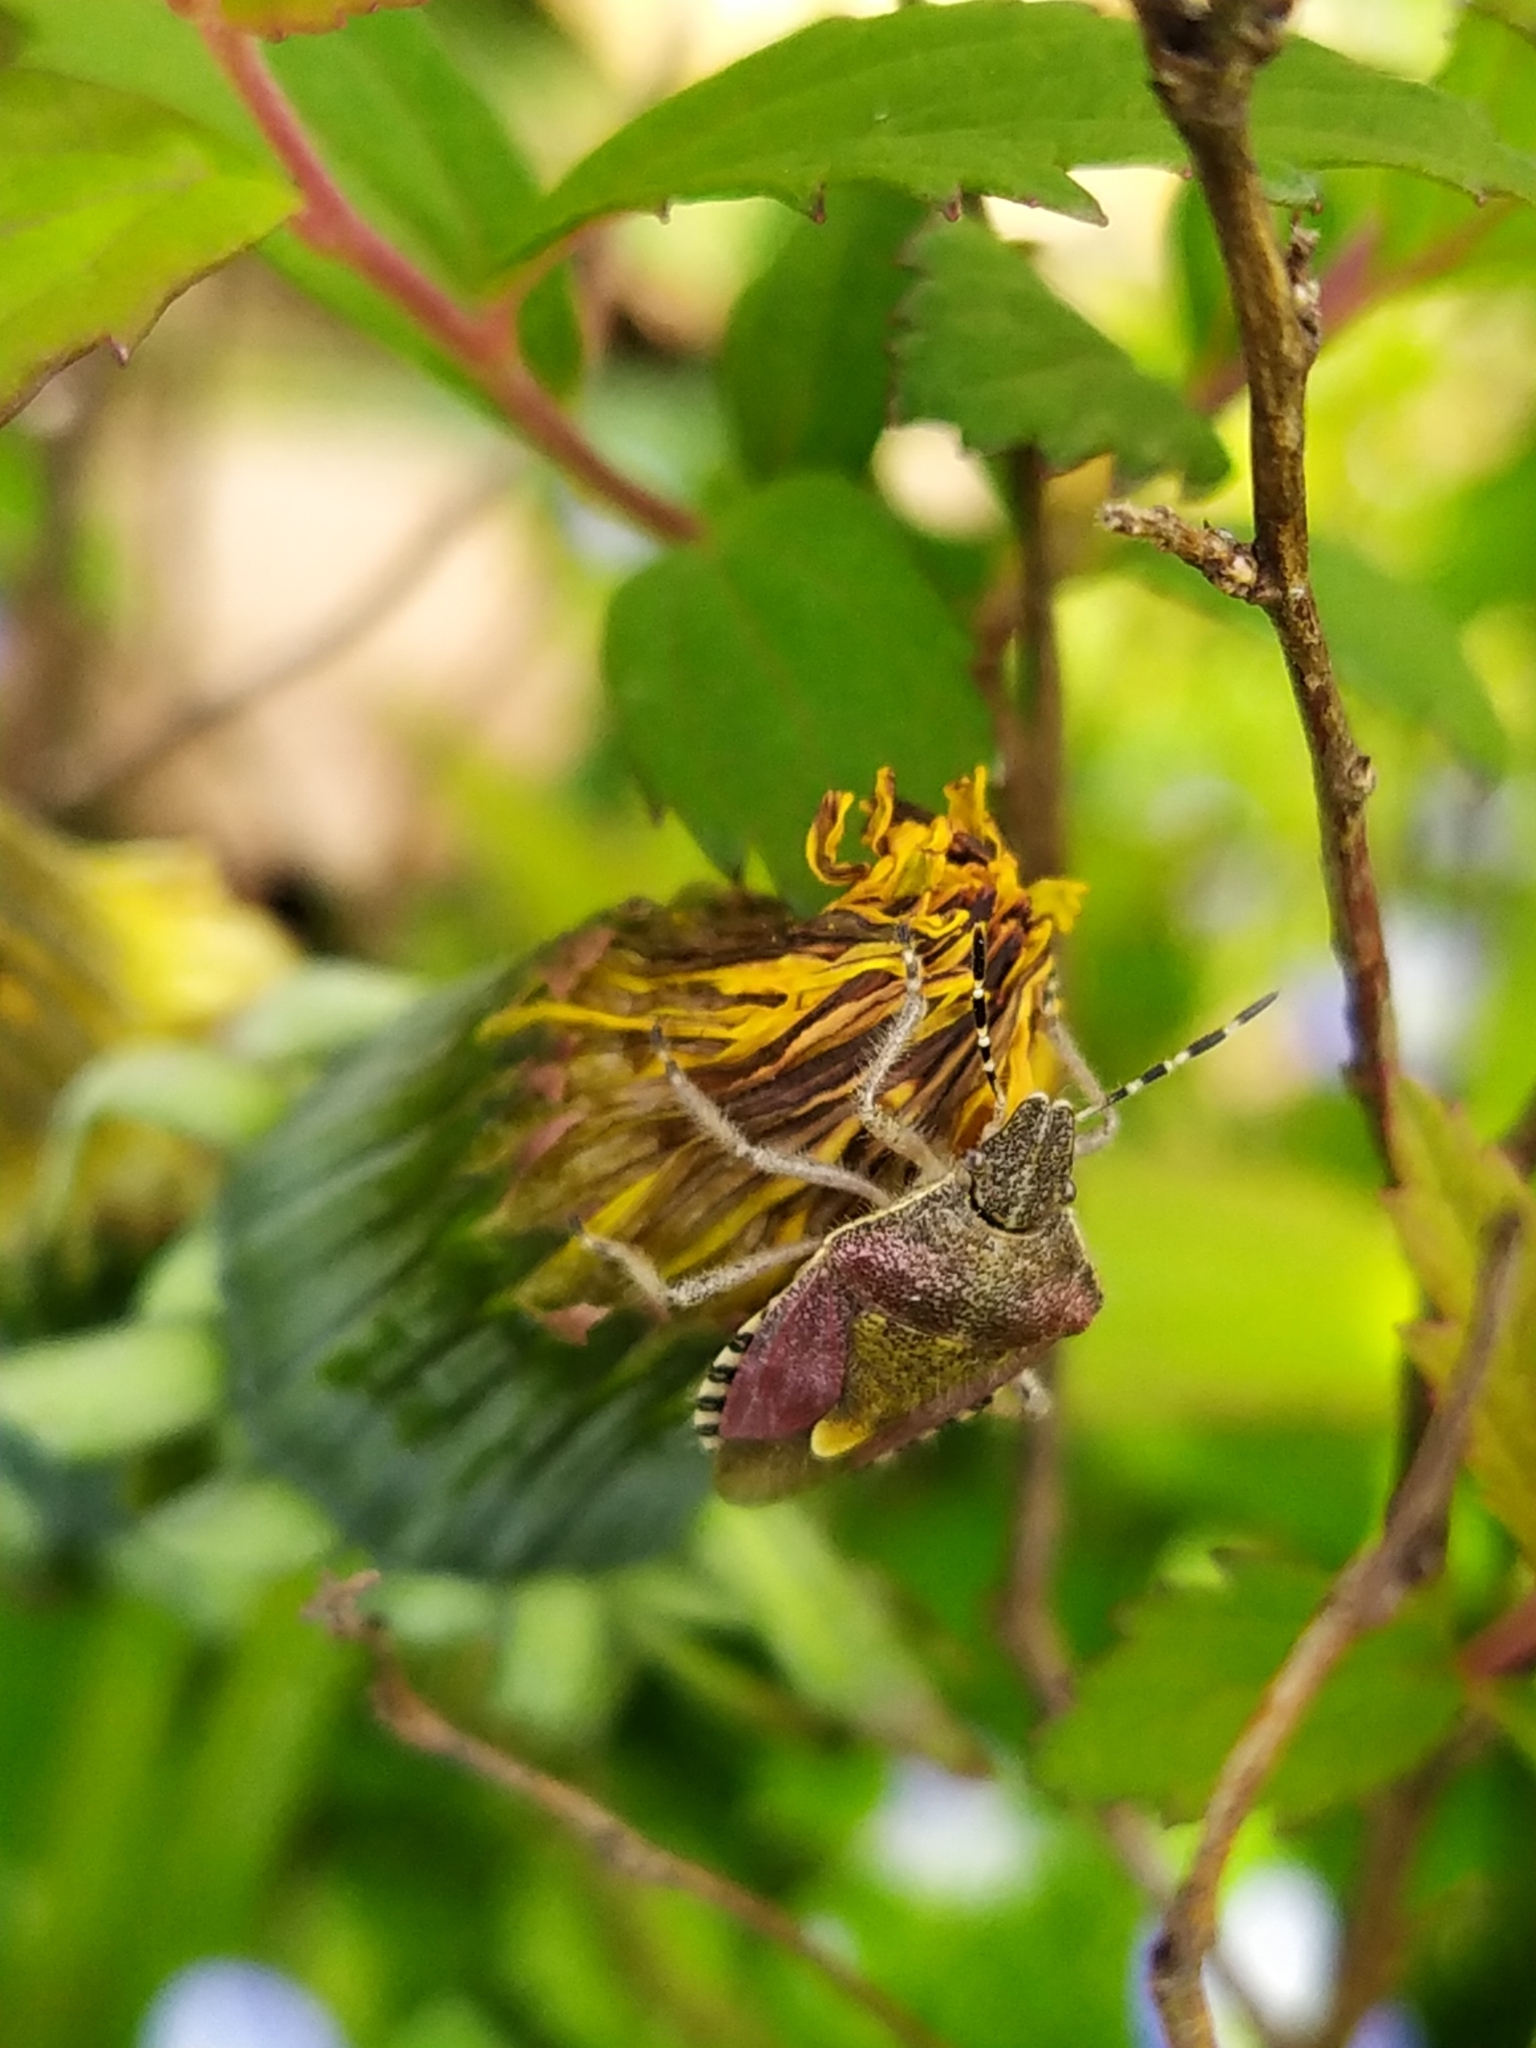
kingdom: Animalia
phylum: Arthropoda
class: Insecta
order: Hemiptera
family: Pentatomidae
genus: Dolycoris
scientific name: Dolycoris baccarum
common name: Sloe bug
